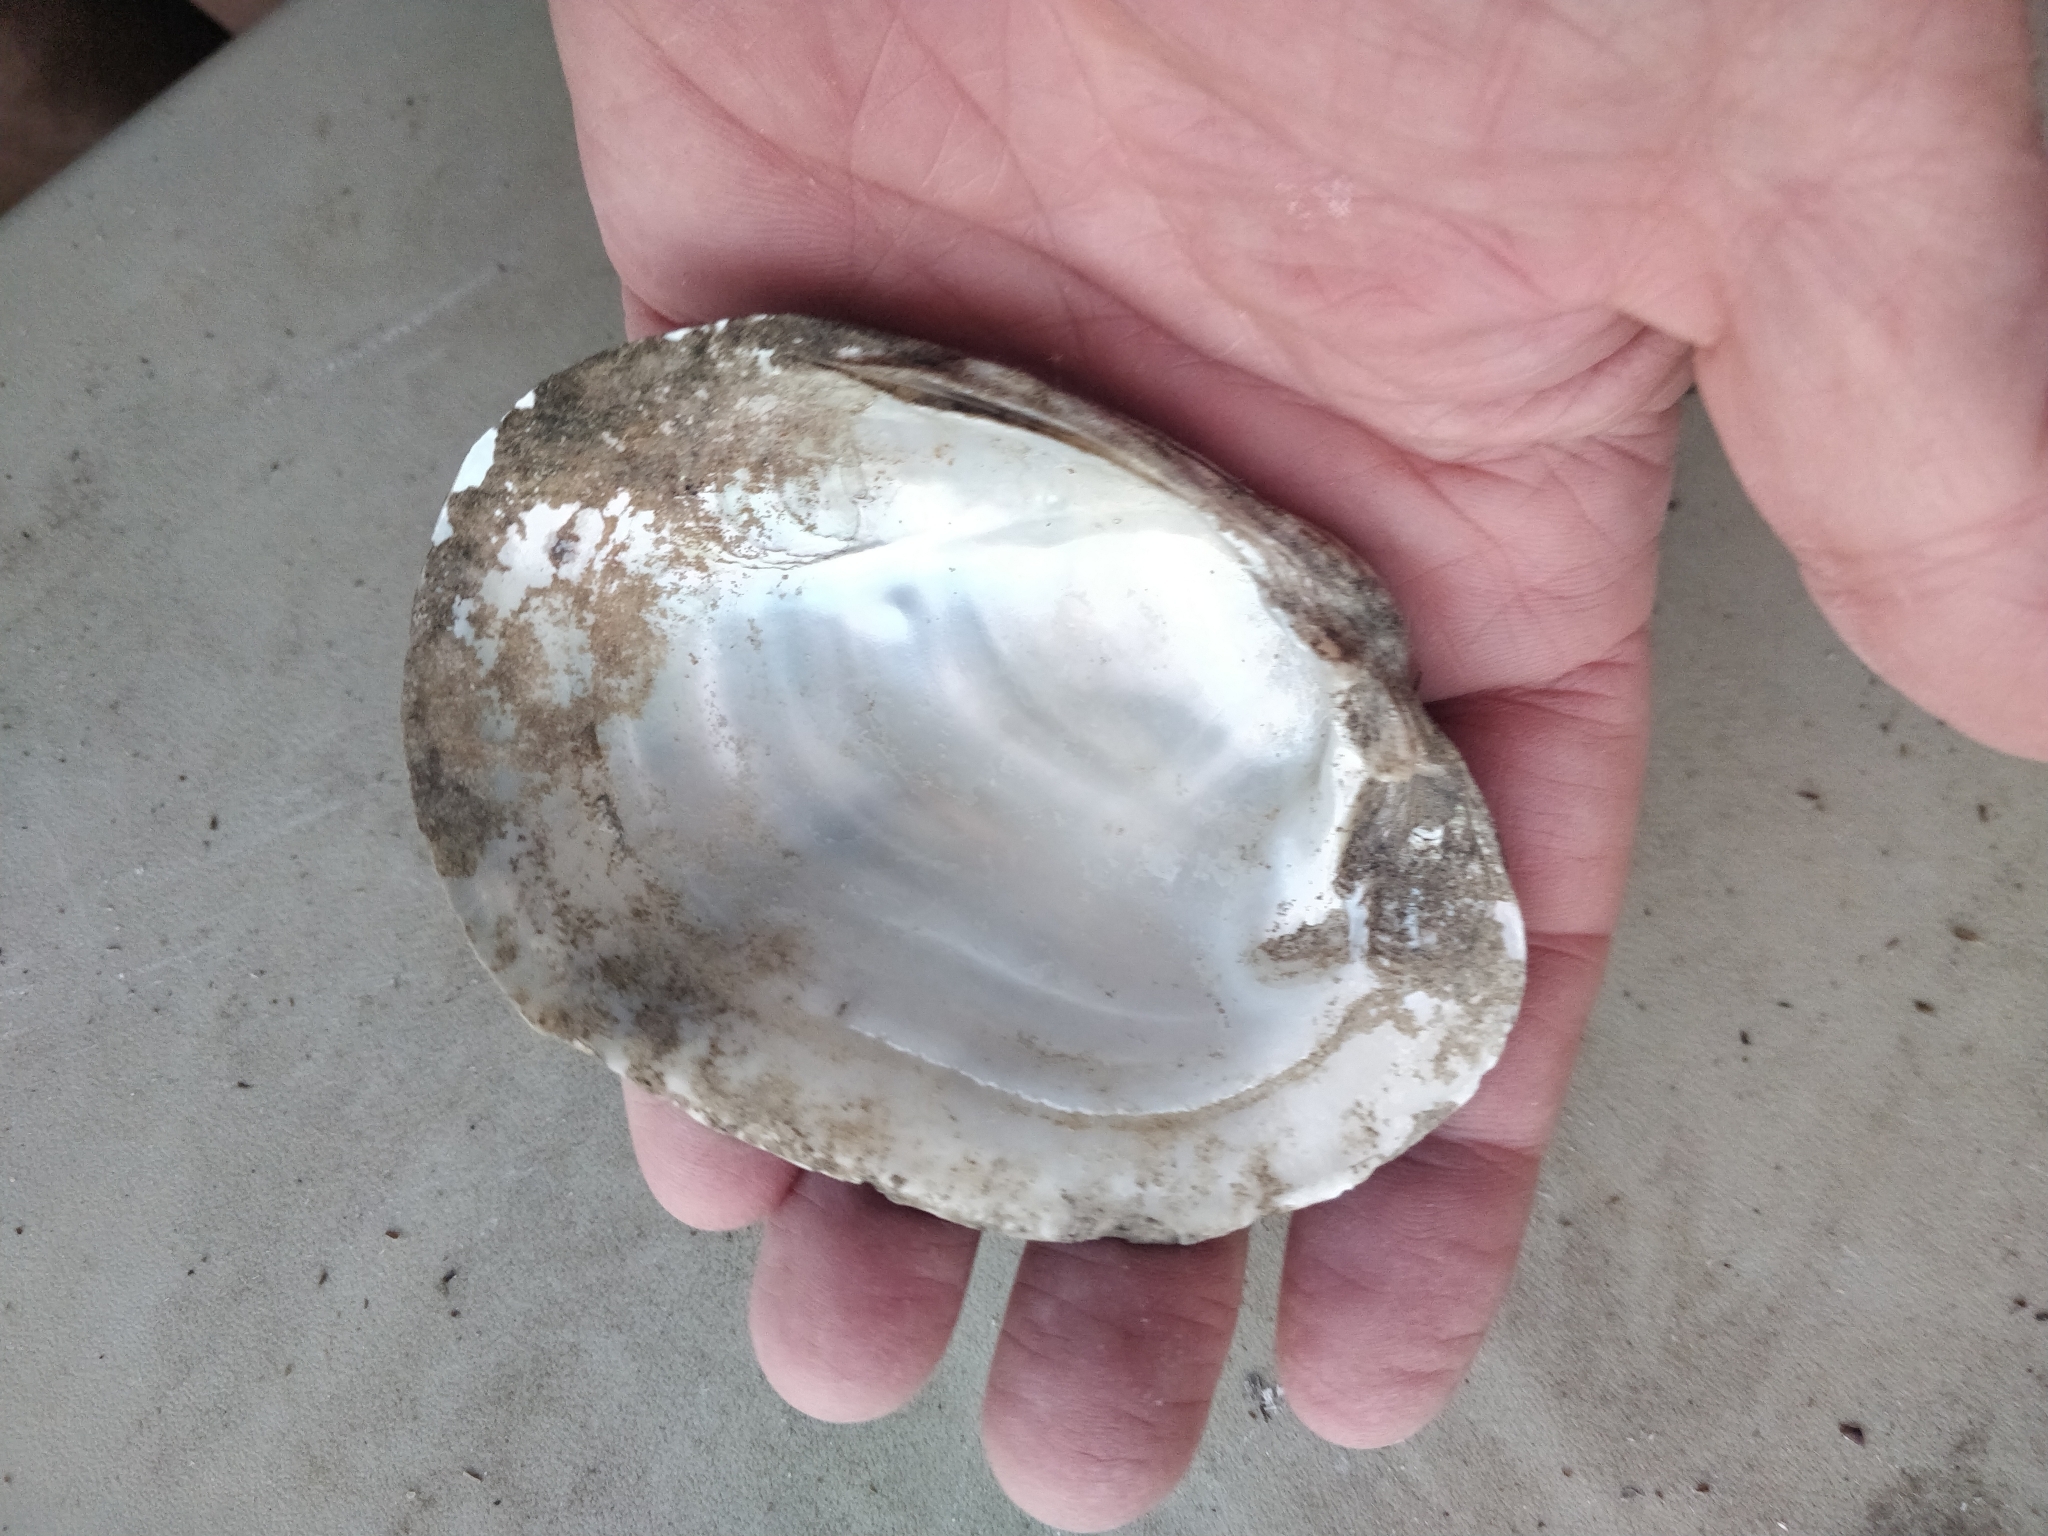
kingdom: Animalia
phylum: Mollusca
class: Bivalvia
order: Unionida
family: Unionidae
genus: Lampsilis
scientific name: Lampsilis cardium
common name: Plain pocketbook
